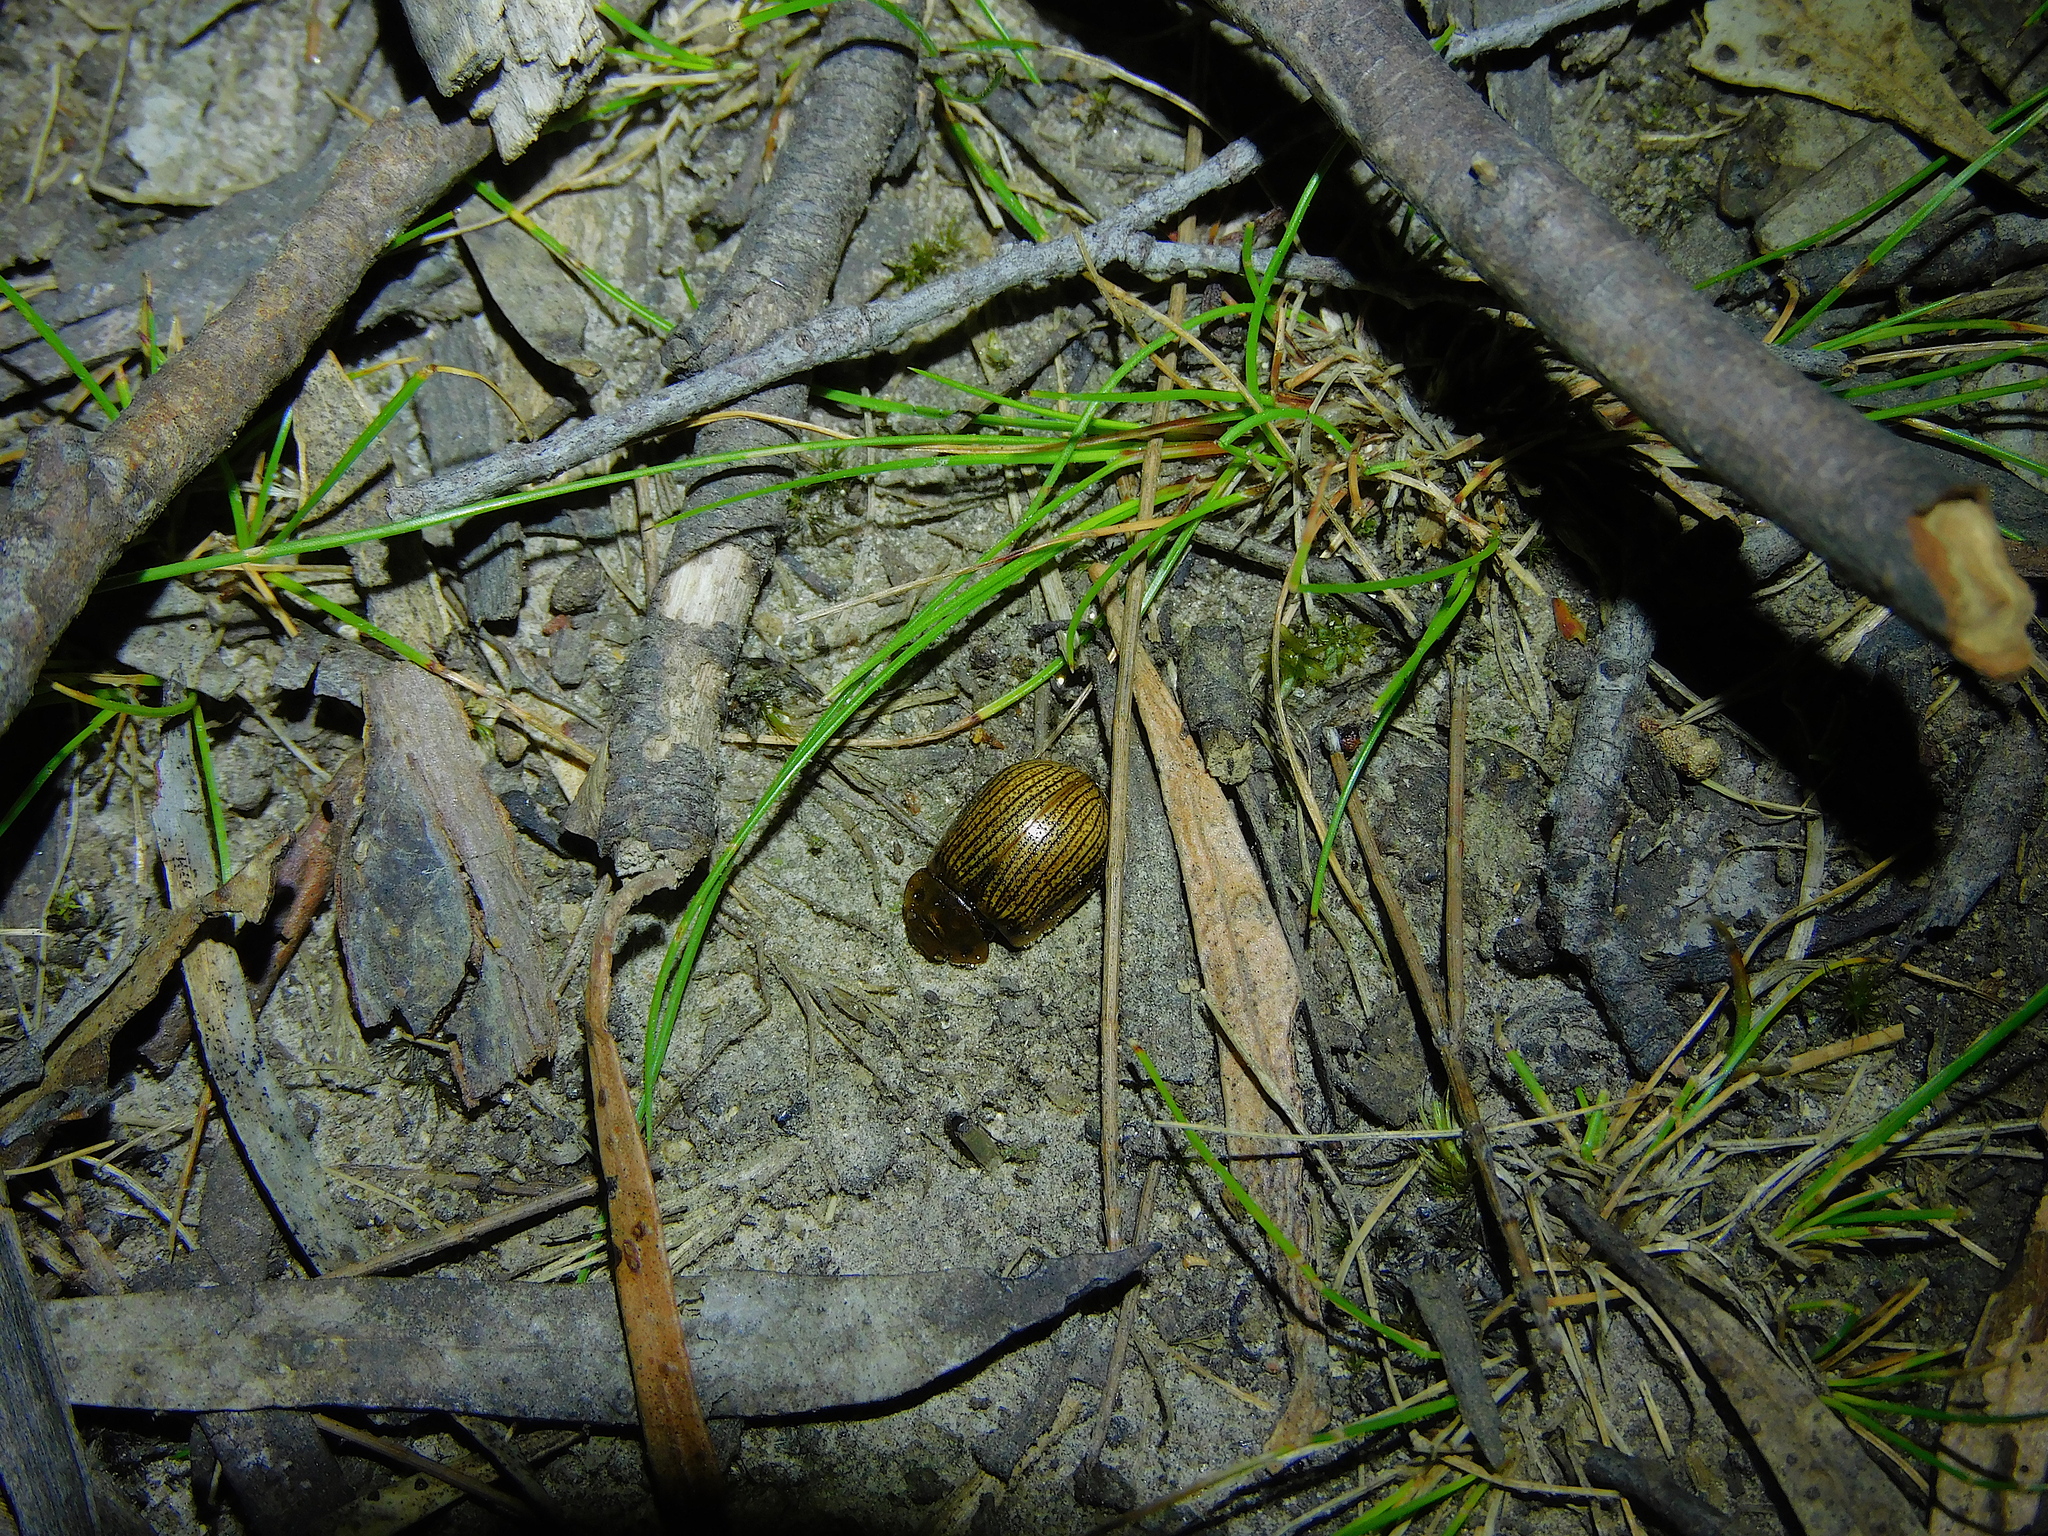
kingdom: Animalia
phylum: Arthropoda
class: Insecta
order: Coleoptera
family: Chrysomelidae
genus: Paropsisterna
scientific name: Paropsisterna lignea
